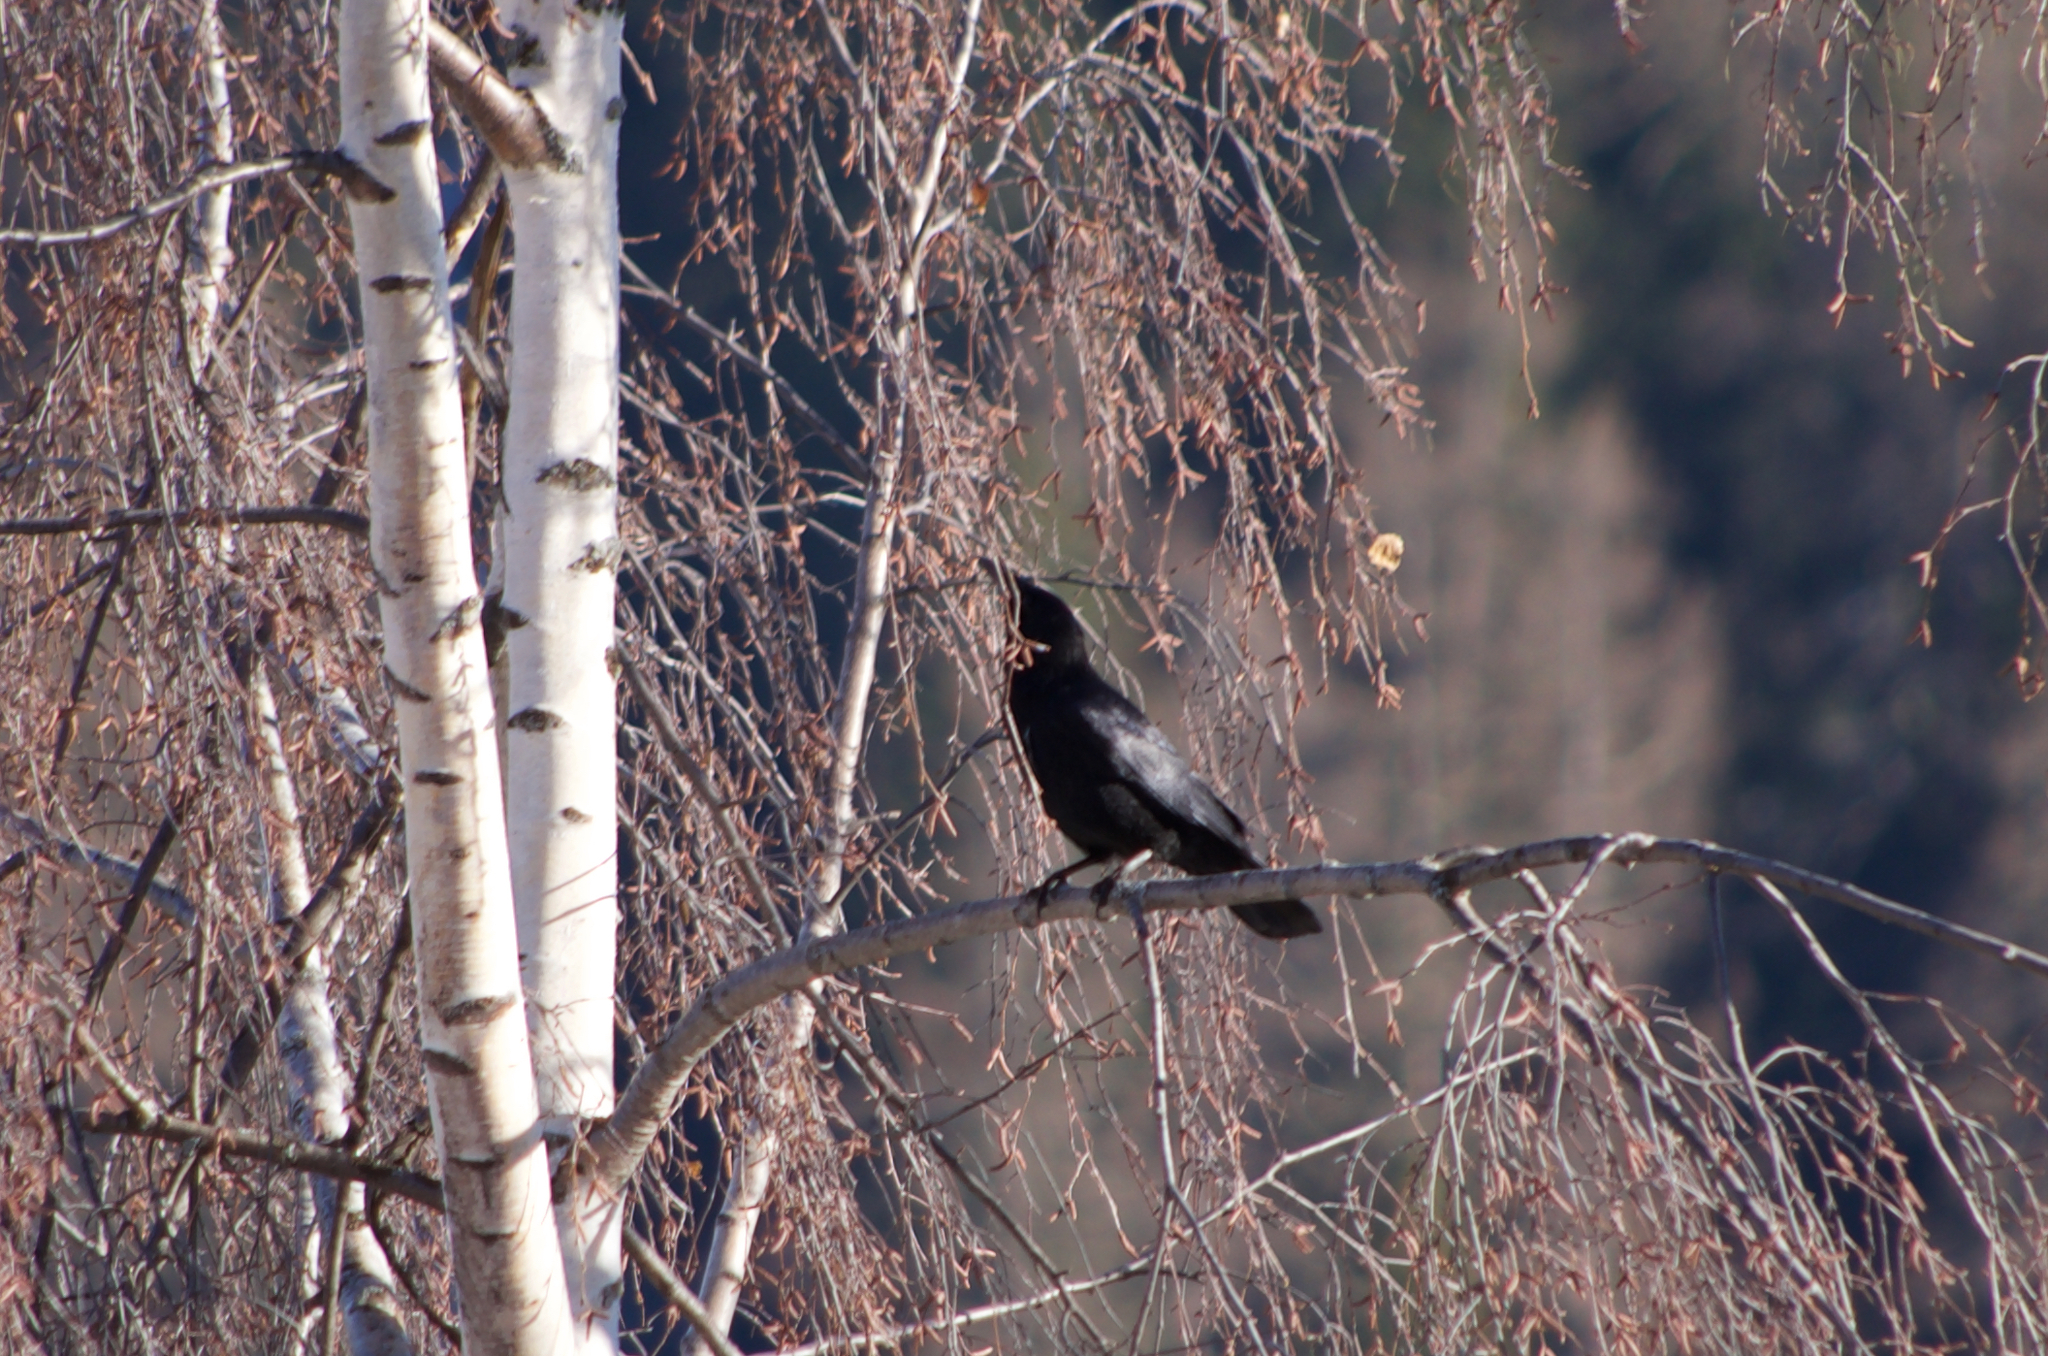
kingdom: Animalia
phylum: Chordata
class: Aves
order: Passeriformes
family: Corvidae
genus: Corvus
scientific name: Corvus corone
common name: Carrion crow
